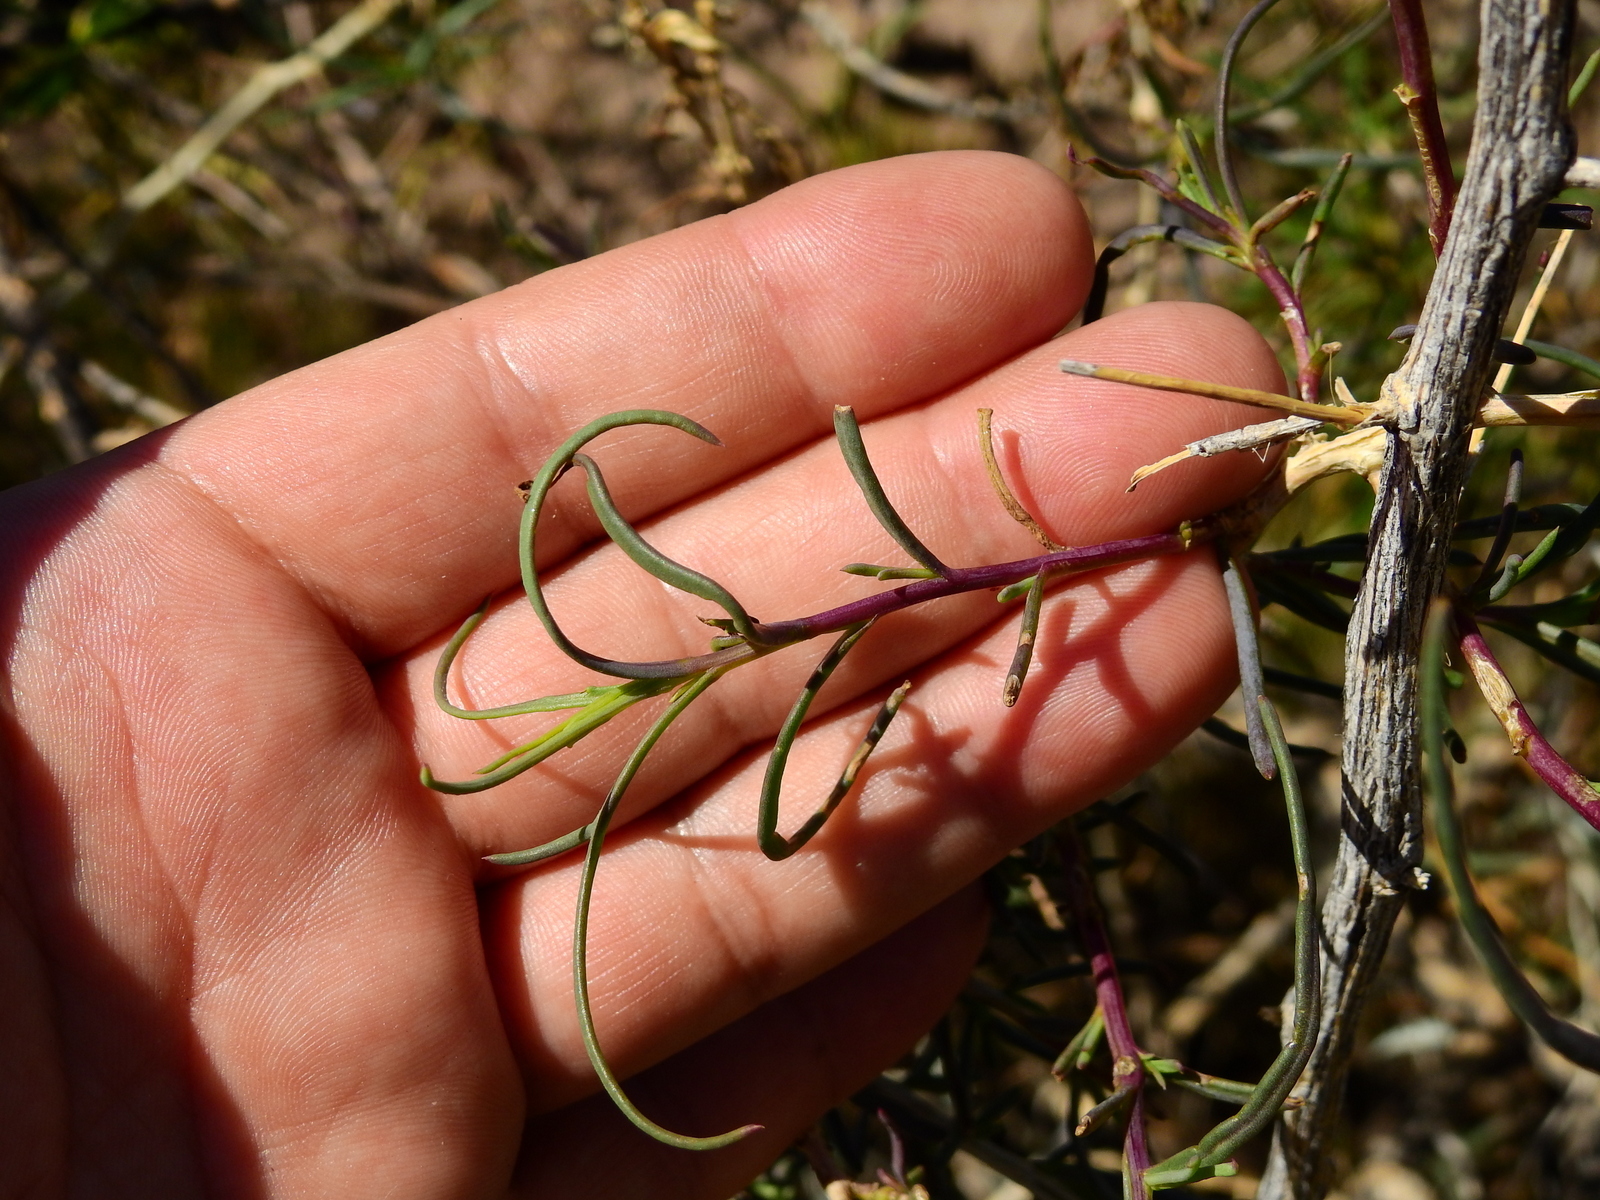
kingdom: Plantae
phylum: Tracheophyta
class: Magnoliopsida
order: Asterales
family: Asteraceae
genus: Senecio
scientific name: Senecio subulatus
